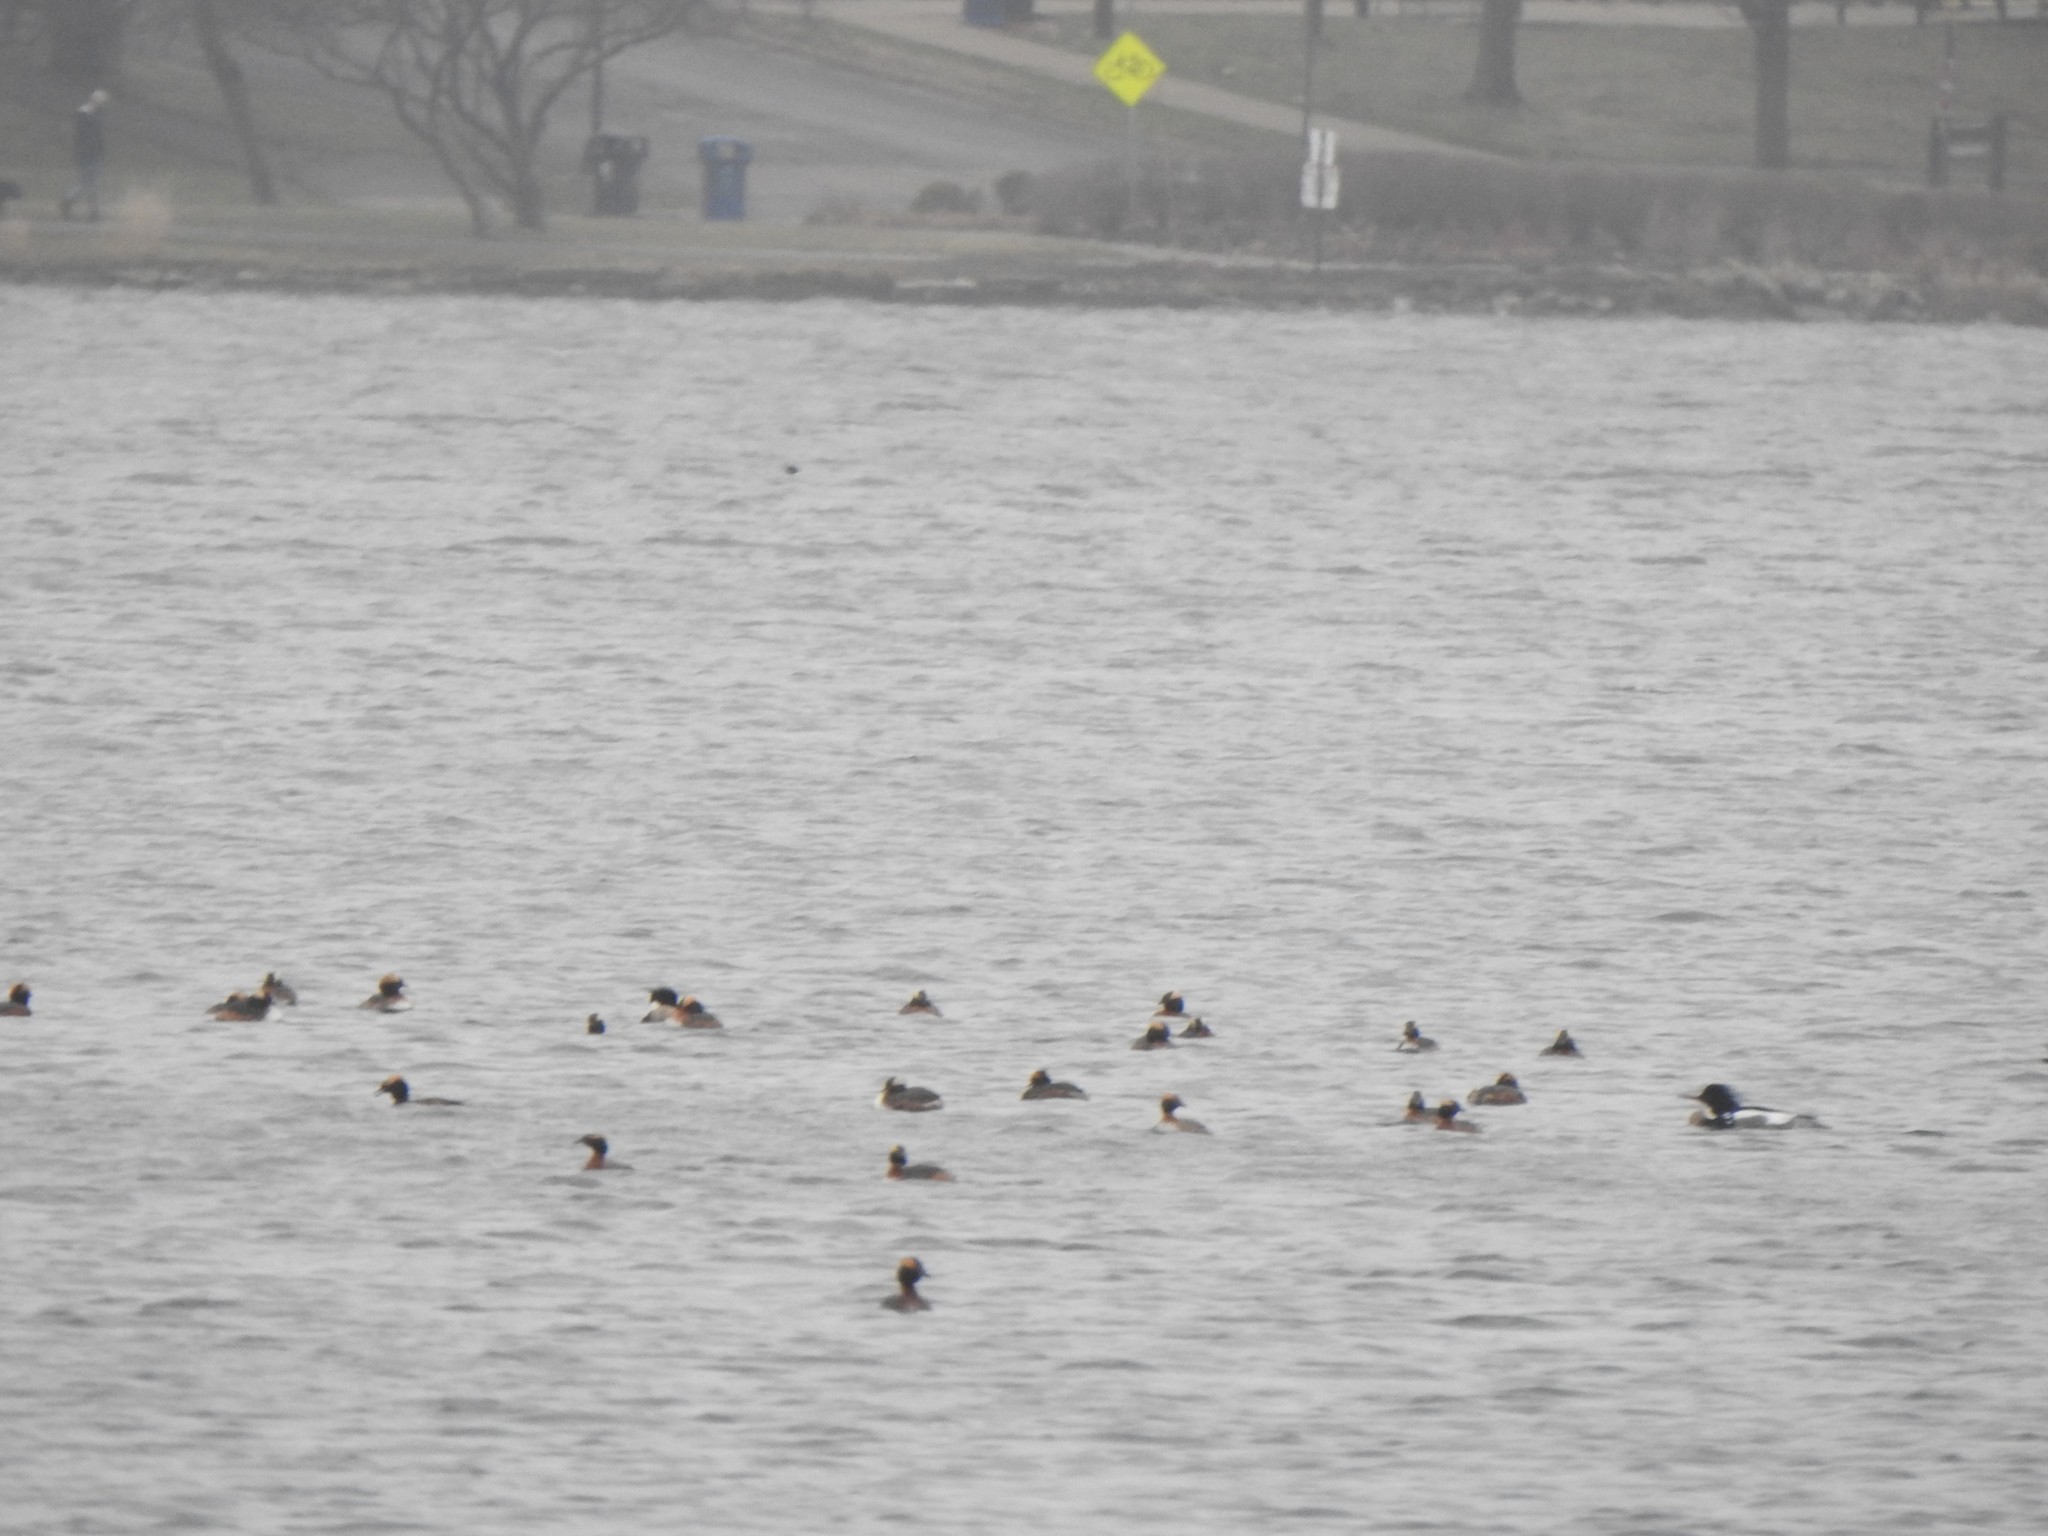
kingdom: Animalia
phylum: Chordata
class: Aves
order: Podicipediformes
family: Podicipedidae
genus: Podiceps
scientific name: Podiceps auritus
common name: Horned grebe
